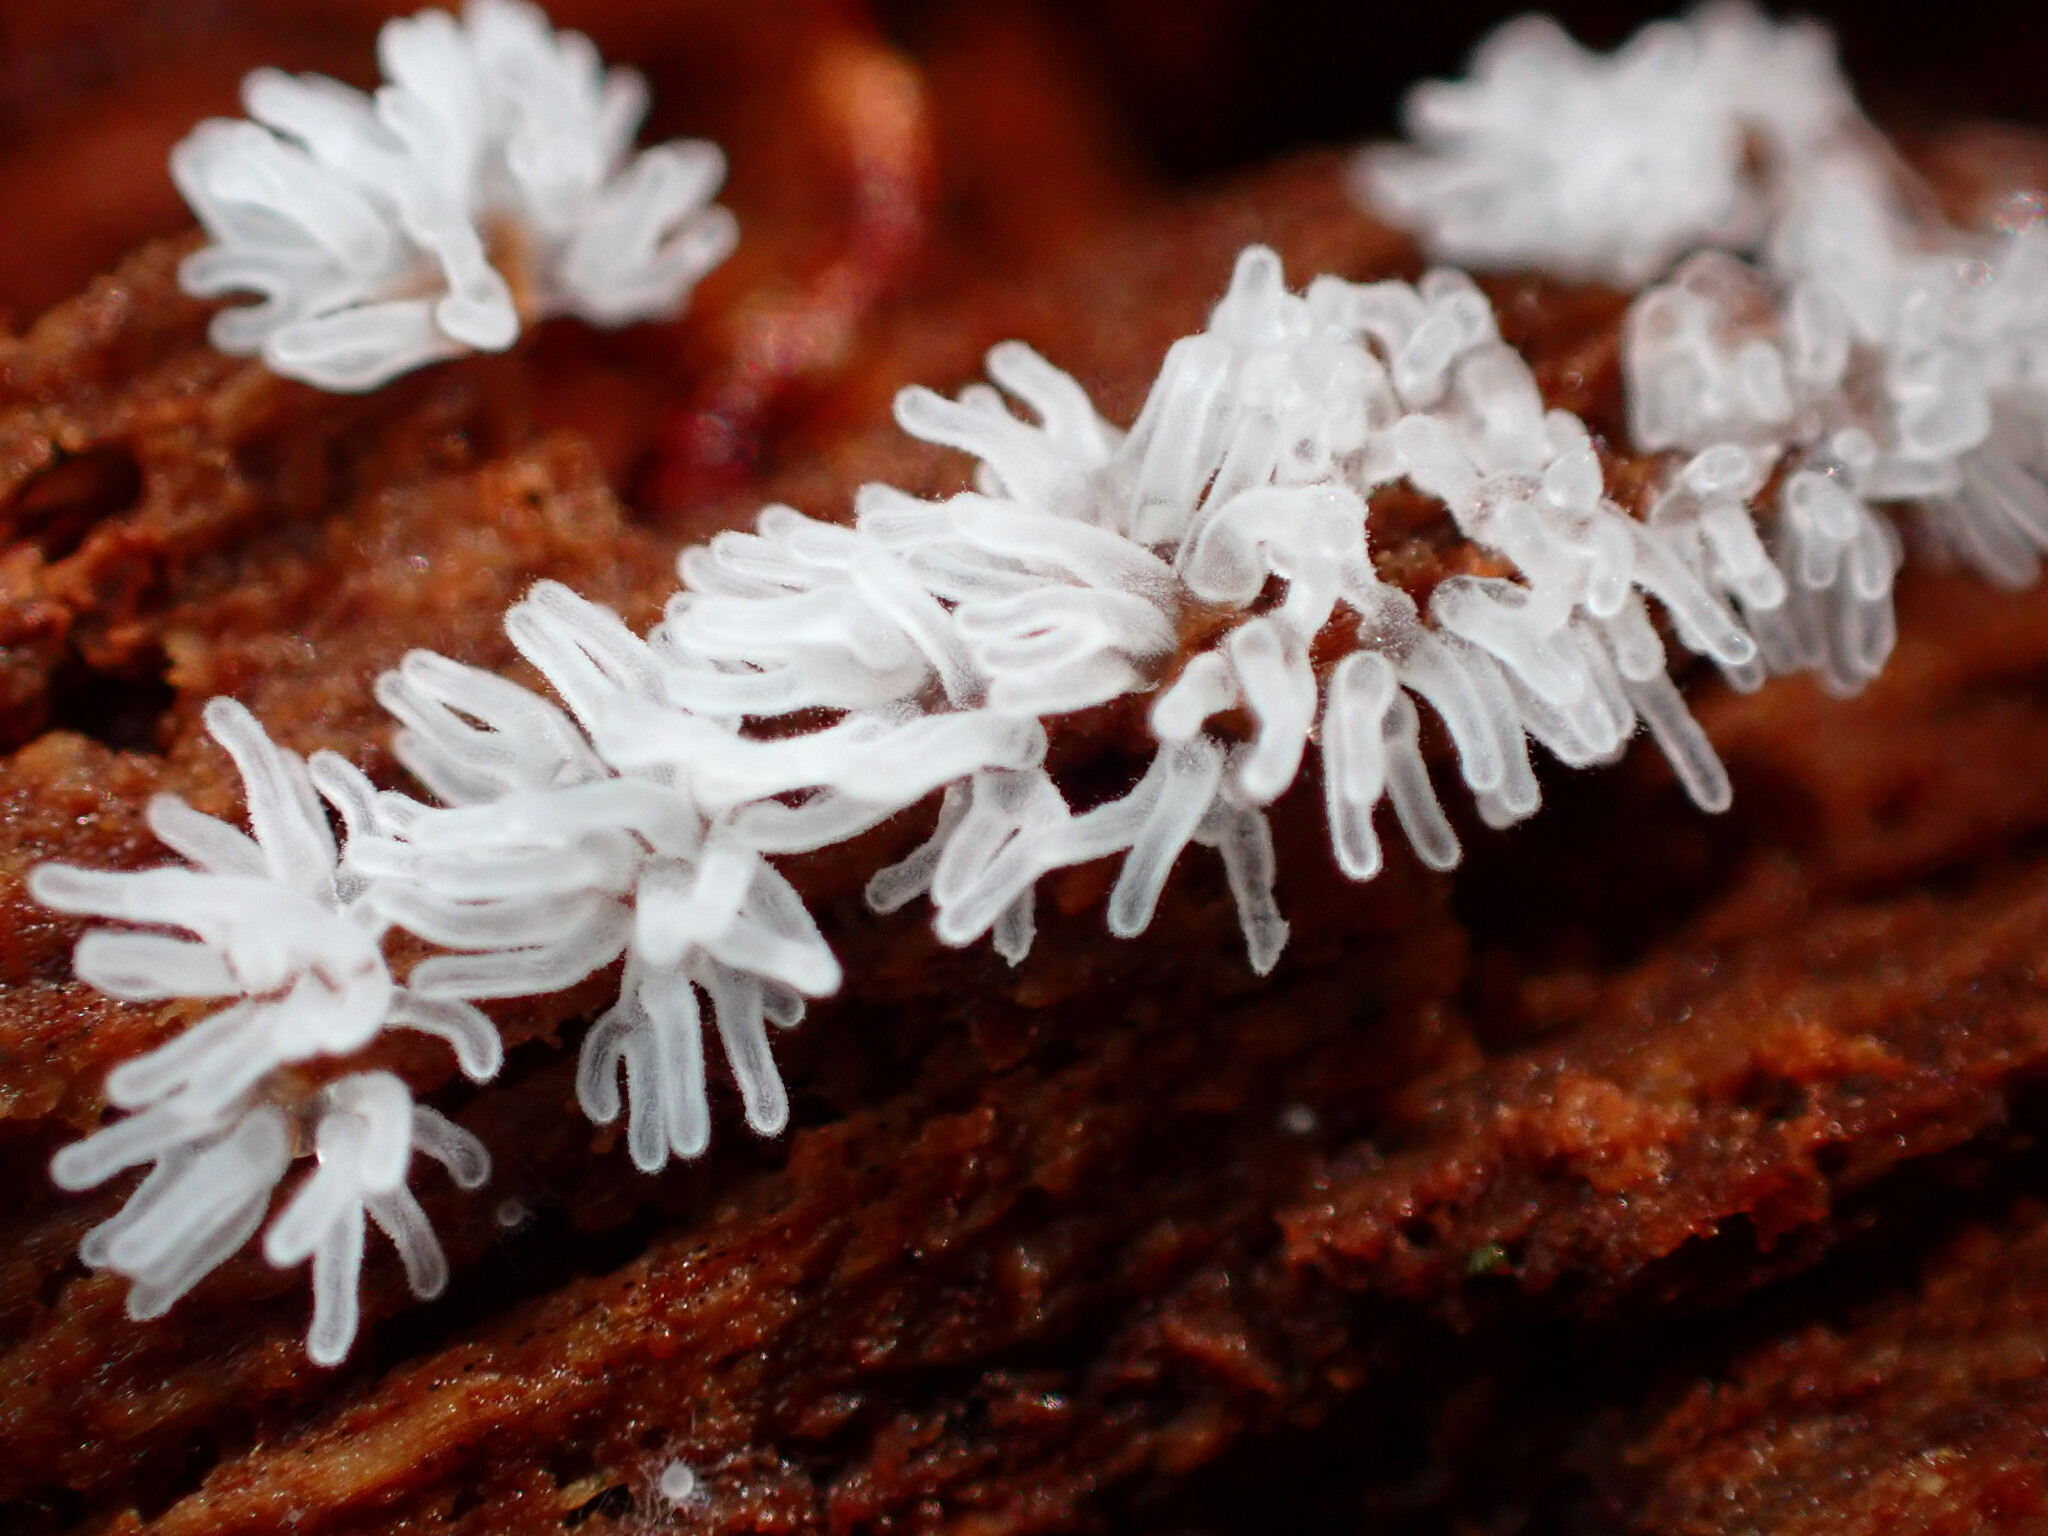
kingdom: Protozoa
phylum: Mycetozoa
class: Protosteliomycetes
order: Ceratiomyxales
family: Ceratiomyxaceae
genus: Ceratiomyxa
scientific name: Ceratiomyxa fruticulosa
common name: Honeycomb coral slime mold
